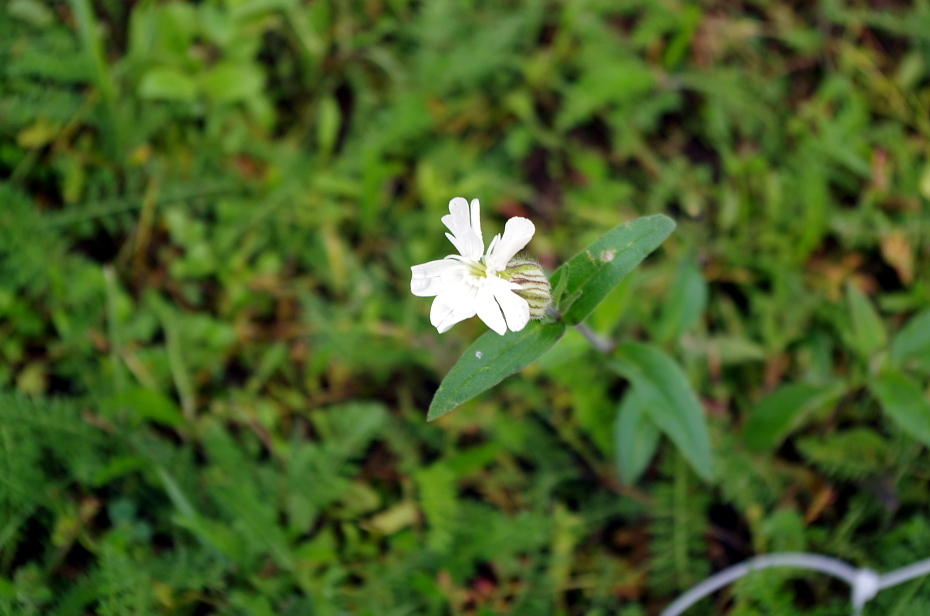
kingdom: Plantae
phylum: Tracheophyta
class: Magnoliopsida
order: Caryophyllales
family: Caryophyllaceae
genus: Silene
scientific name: Silene latifolia
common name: White campion
